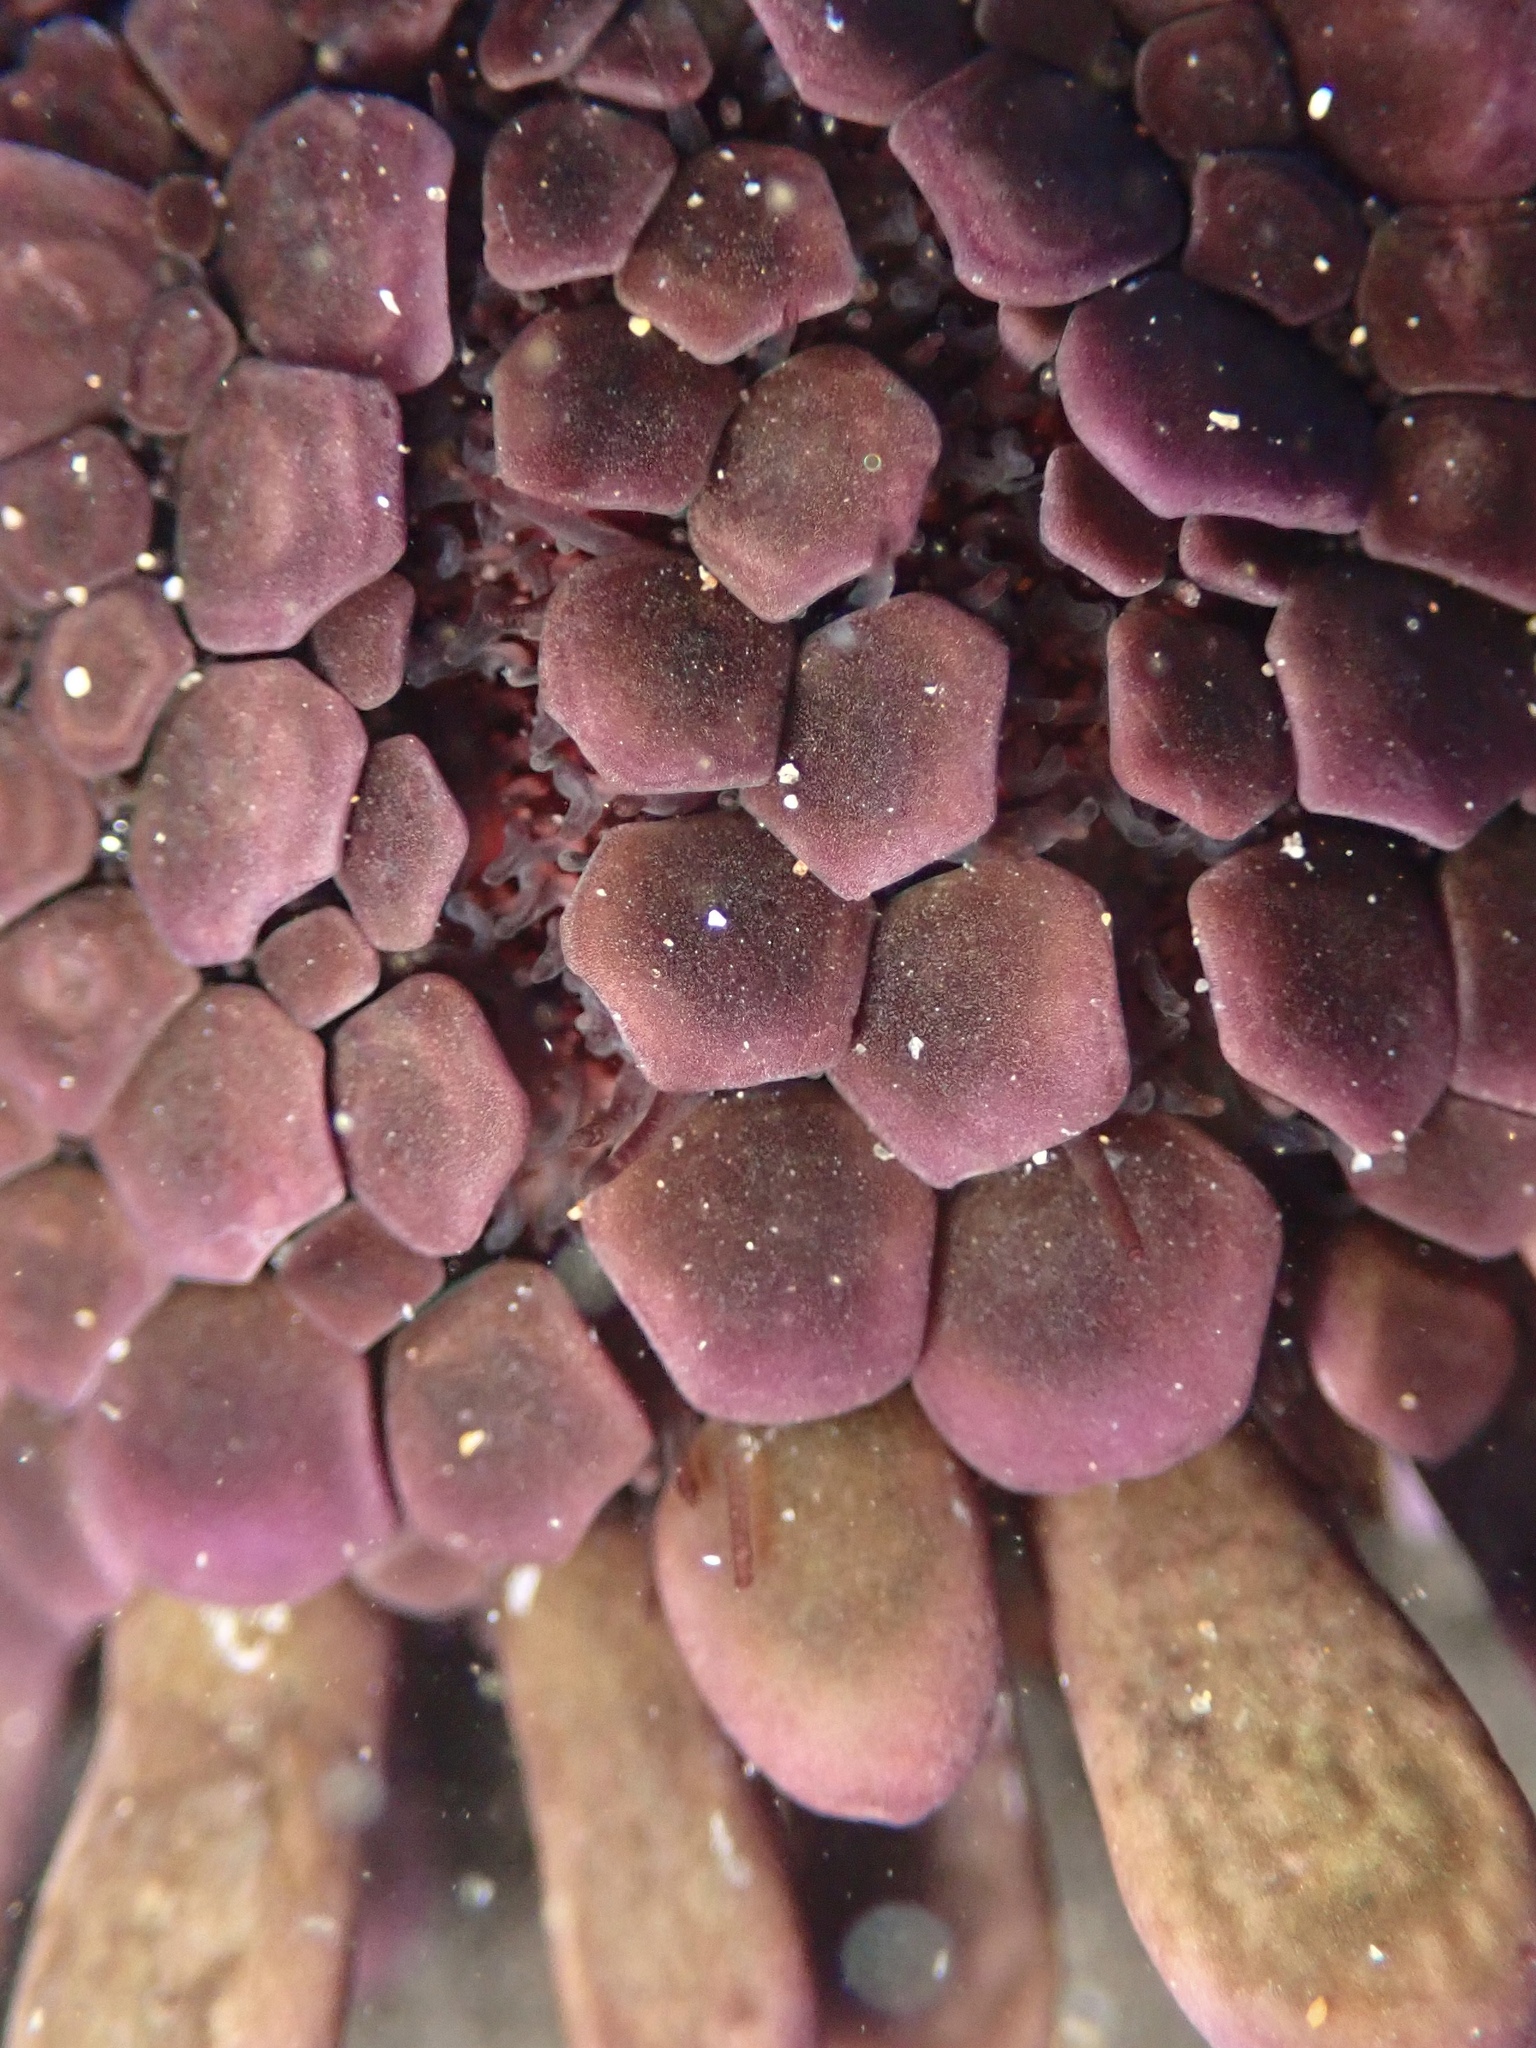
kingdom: Animalia
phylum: Echinodermata
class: Echinoidea
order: Camarodonta
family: Echinometridae
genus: Colobocentrotus
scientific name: Colobocentrotus atratus
